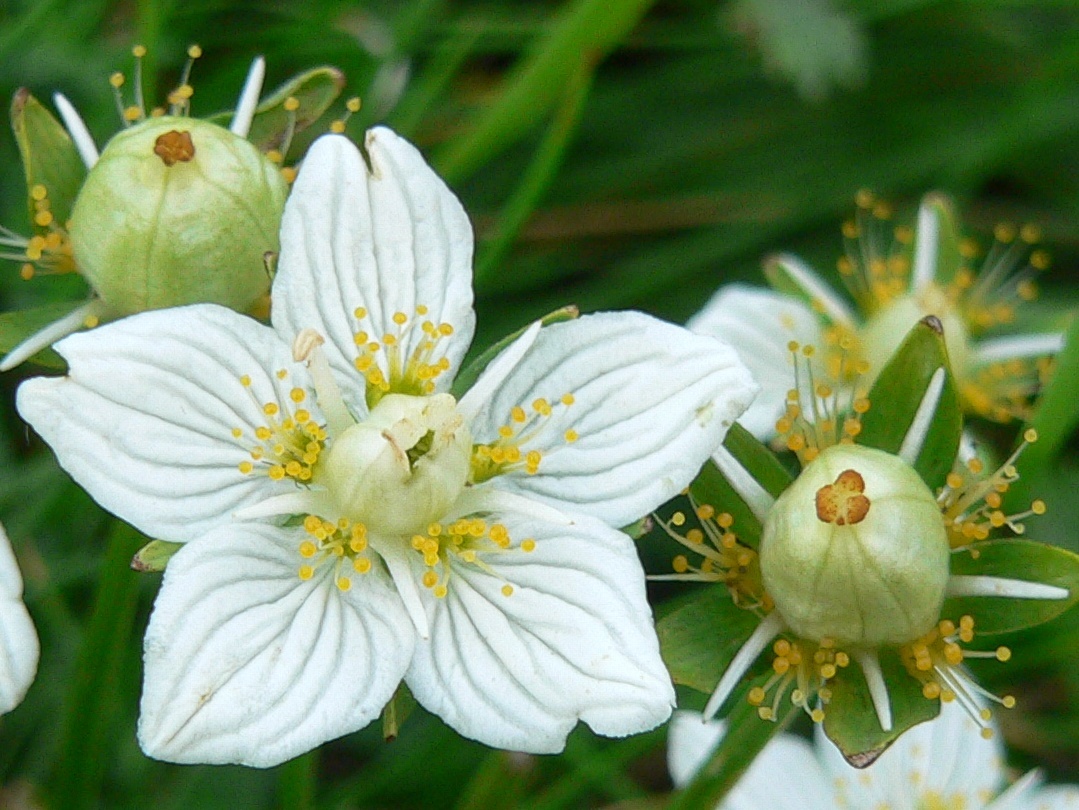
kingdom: Plantae
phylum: Tracheophyta
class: Magnoliopsida
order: Celastrales
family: Parnassiaceae
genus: Parnassia
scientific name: Parnassia palustris
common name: Grass-of-parnassus
